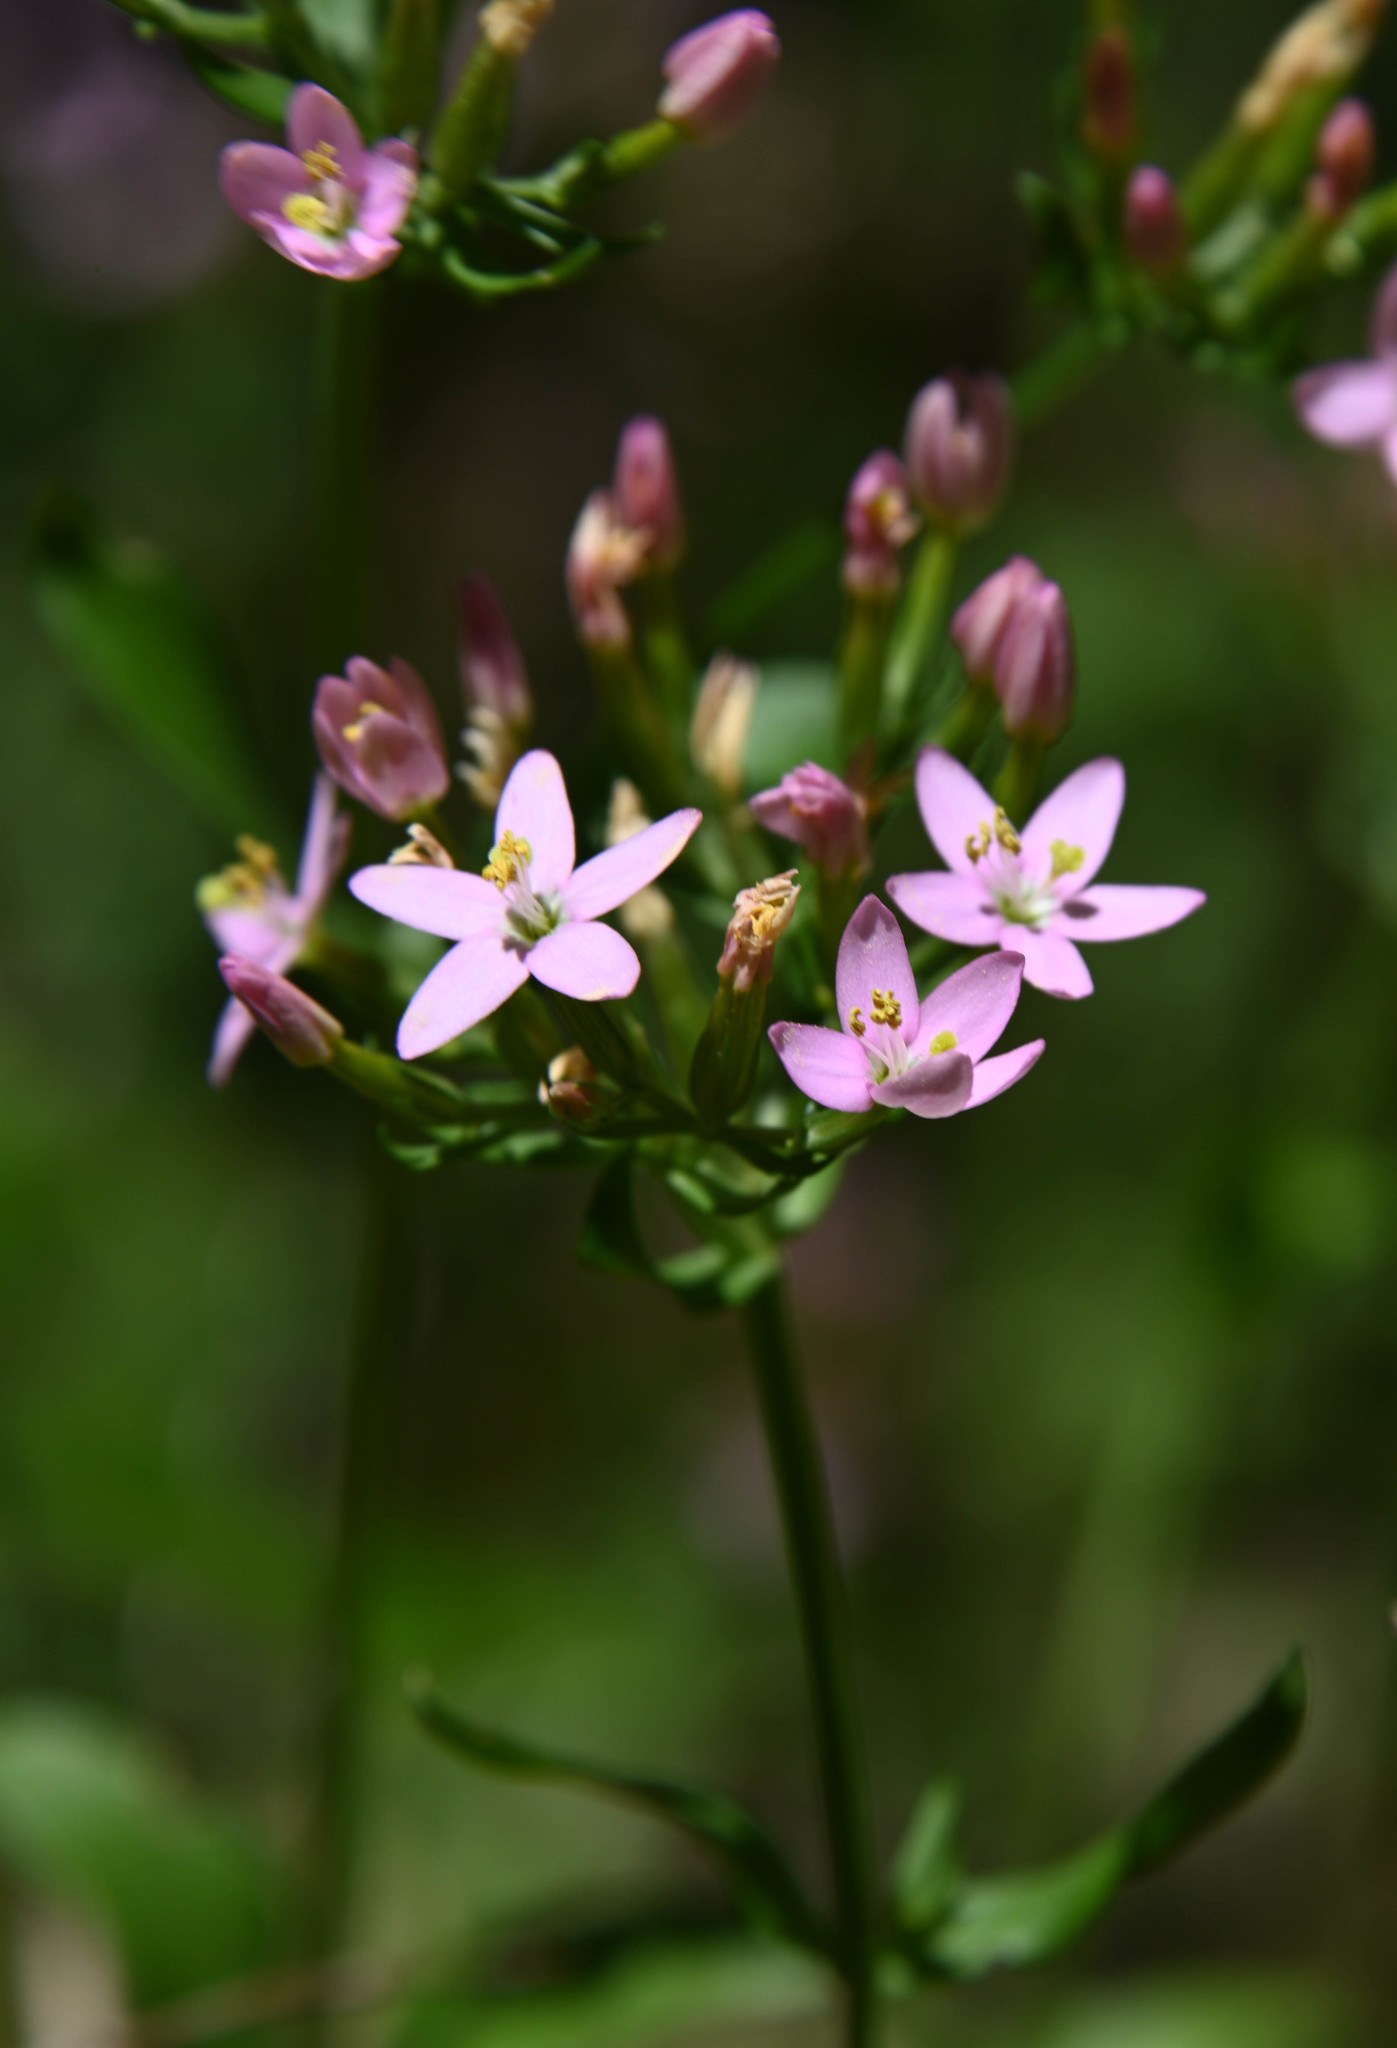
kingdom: Plantae
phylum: Tracheophyta
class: Magnoliopsida
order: Gentianales
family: Gentianaceae
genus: Centaurium
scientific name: Centaurium erythraea
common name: Common centaury
